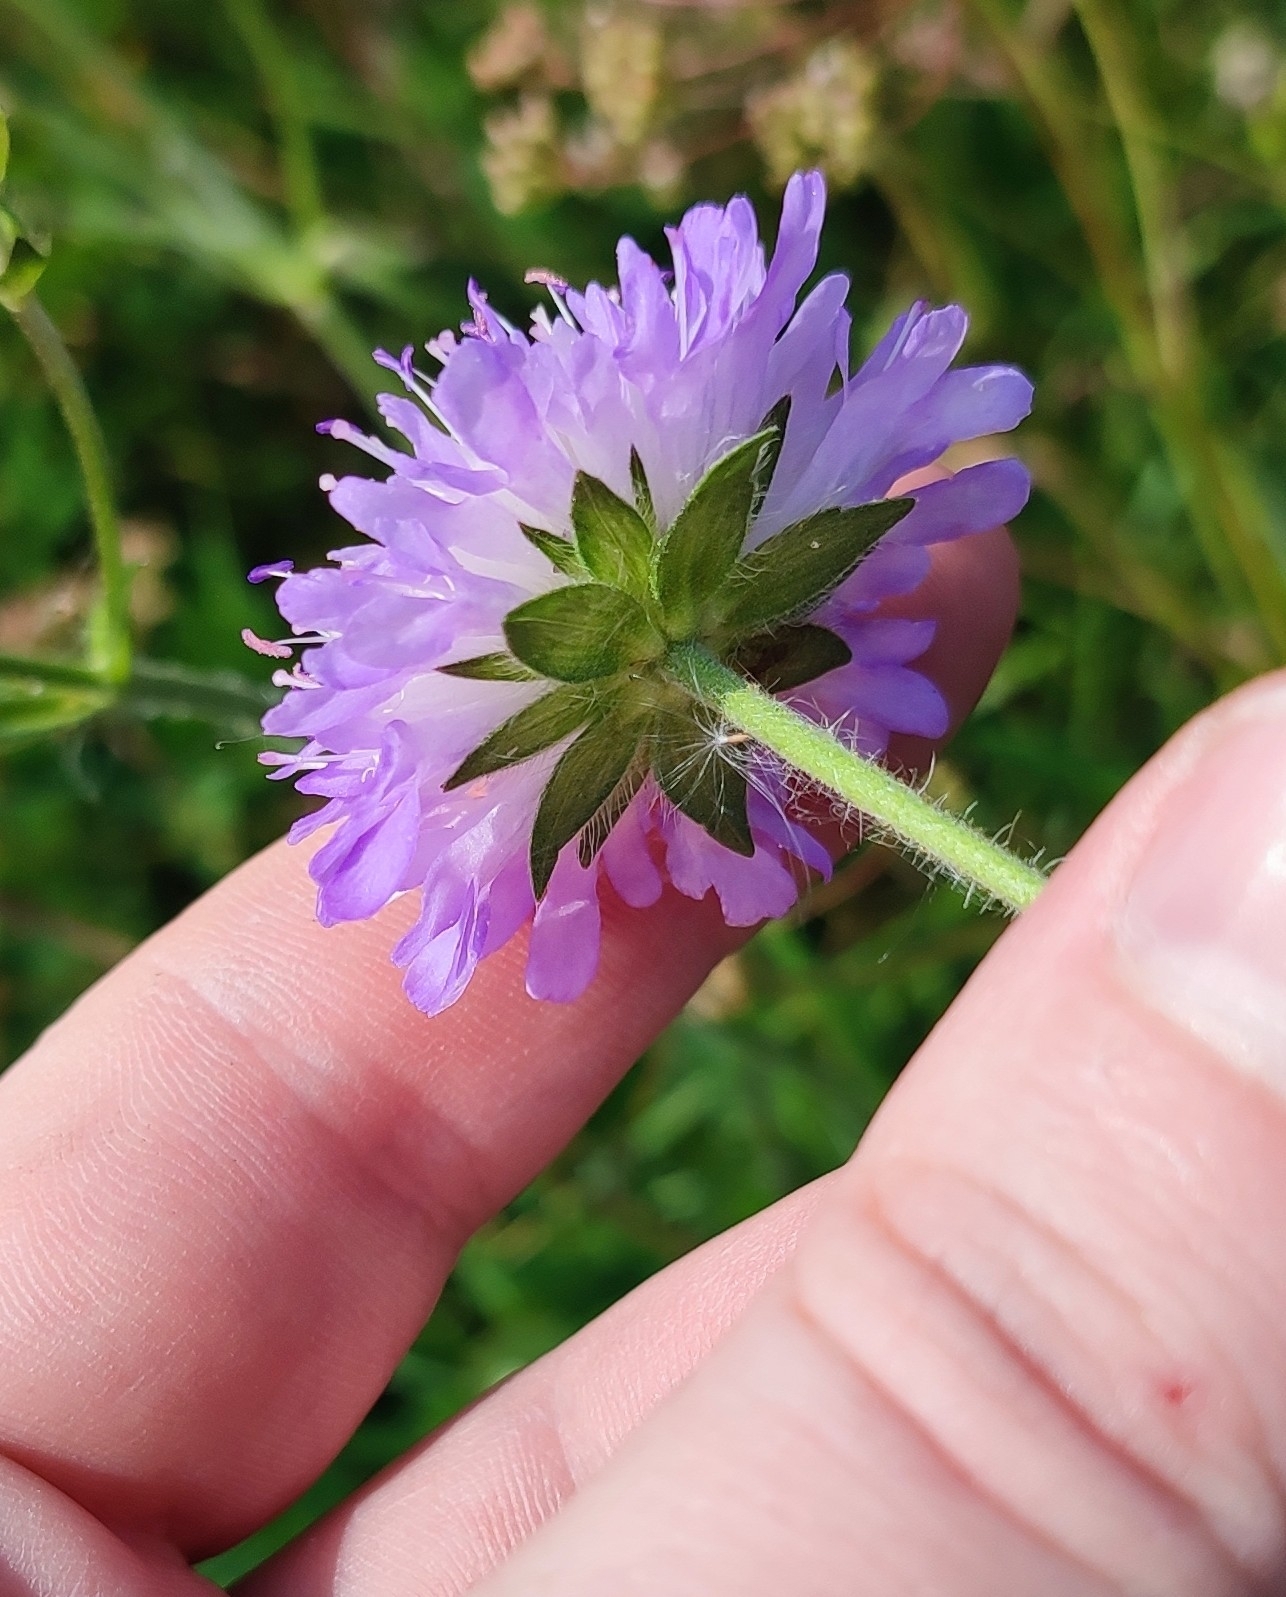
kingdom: Plantae
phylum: Tracheophyta
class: Magnoliopsida
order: Dipsacales
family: Caprifoliaceae
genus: Knautia
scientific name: Knautia arvensis
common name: Field scabiosa
